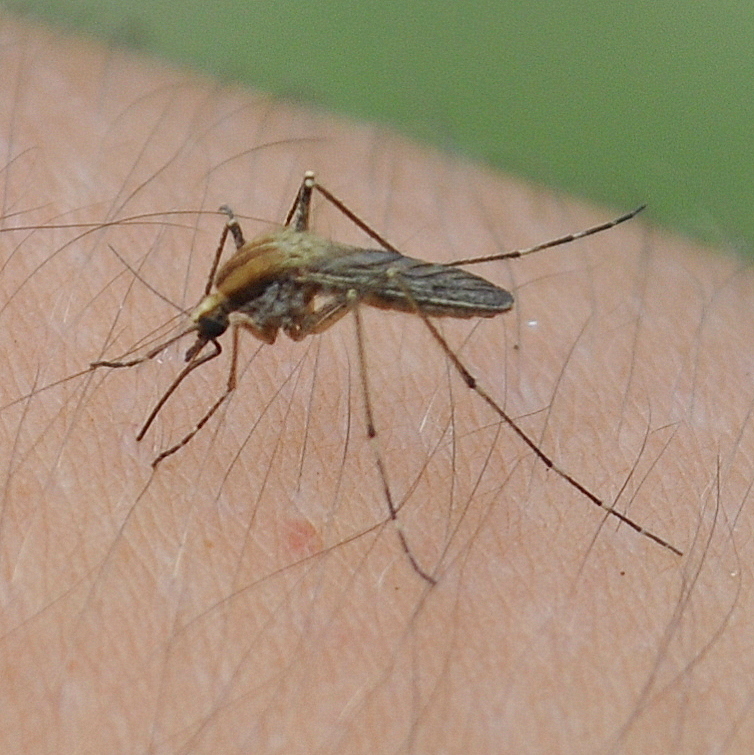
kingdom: Animalia
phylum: Arthropoda
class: Insecta
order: Diptera
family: Culicidae
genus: Aedes
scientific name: Aedes albifasciatus
